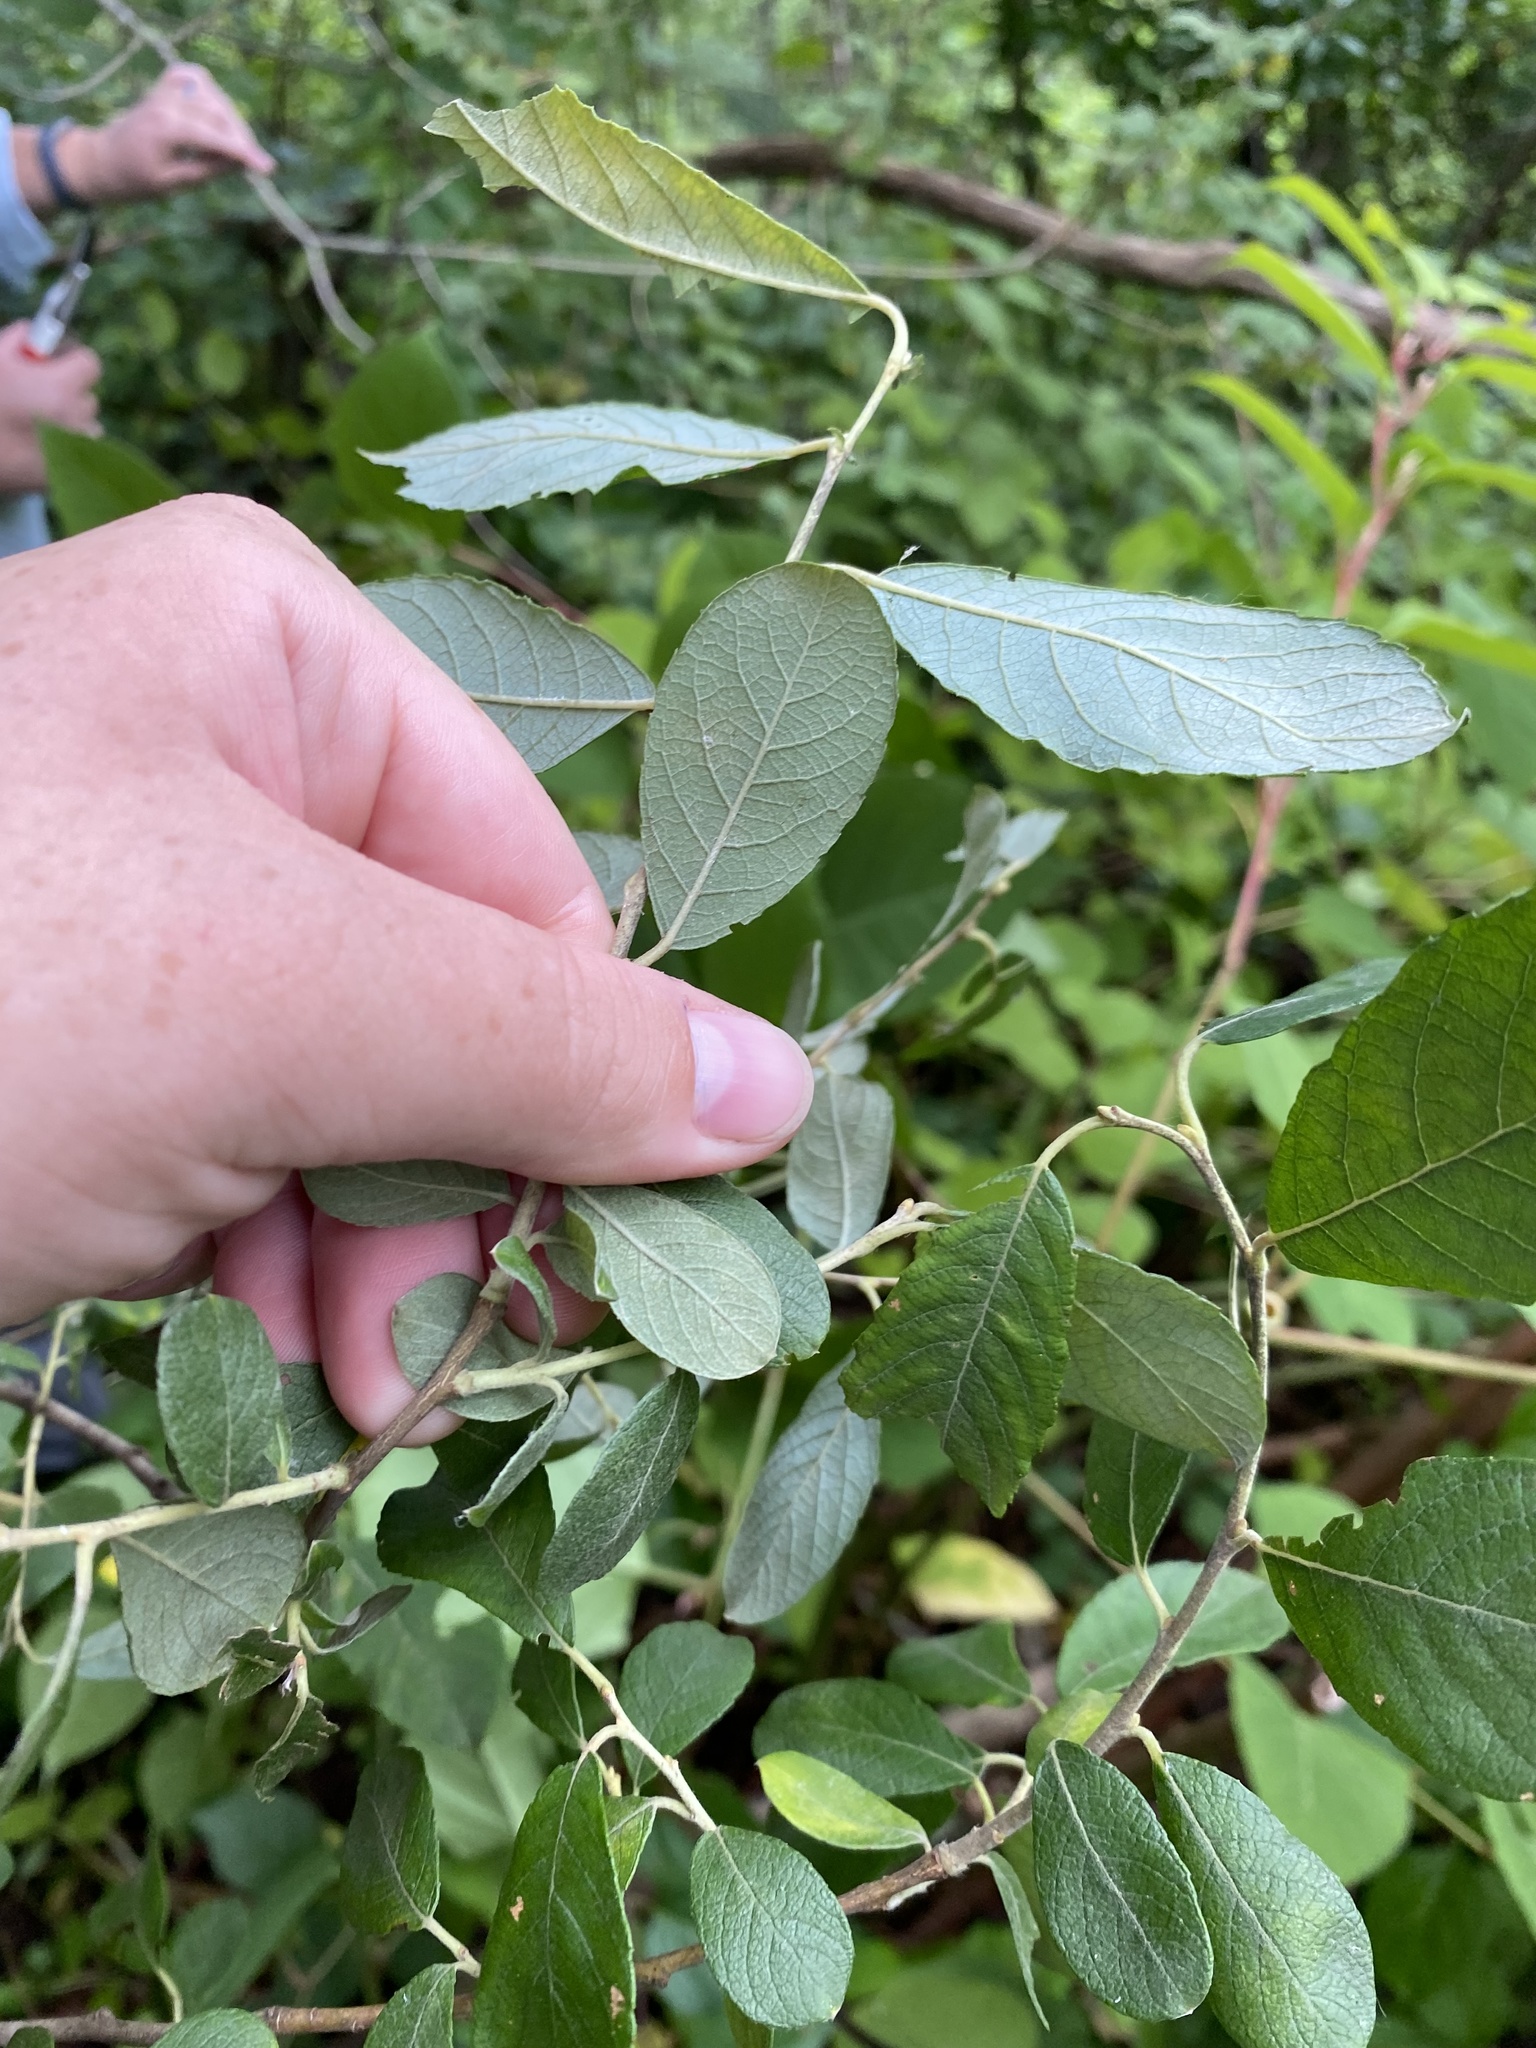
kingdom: Plantae
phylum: Tracheophyta
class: Magnoliopsida
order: Malpighiales
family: Salicaceae
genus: Salix
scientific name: Salix bebbiana
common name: Bebb's willow
